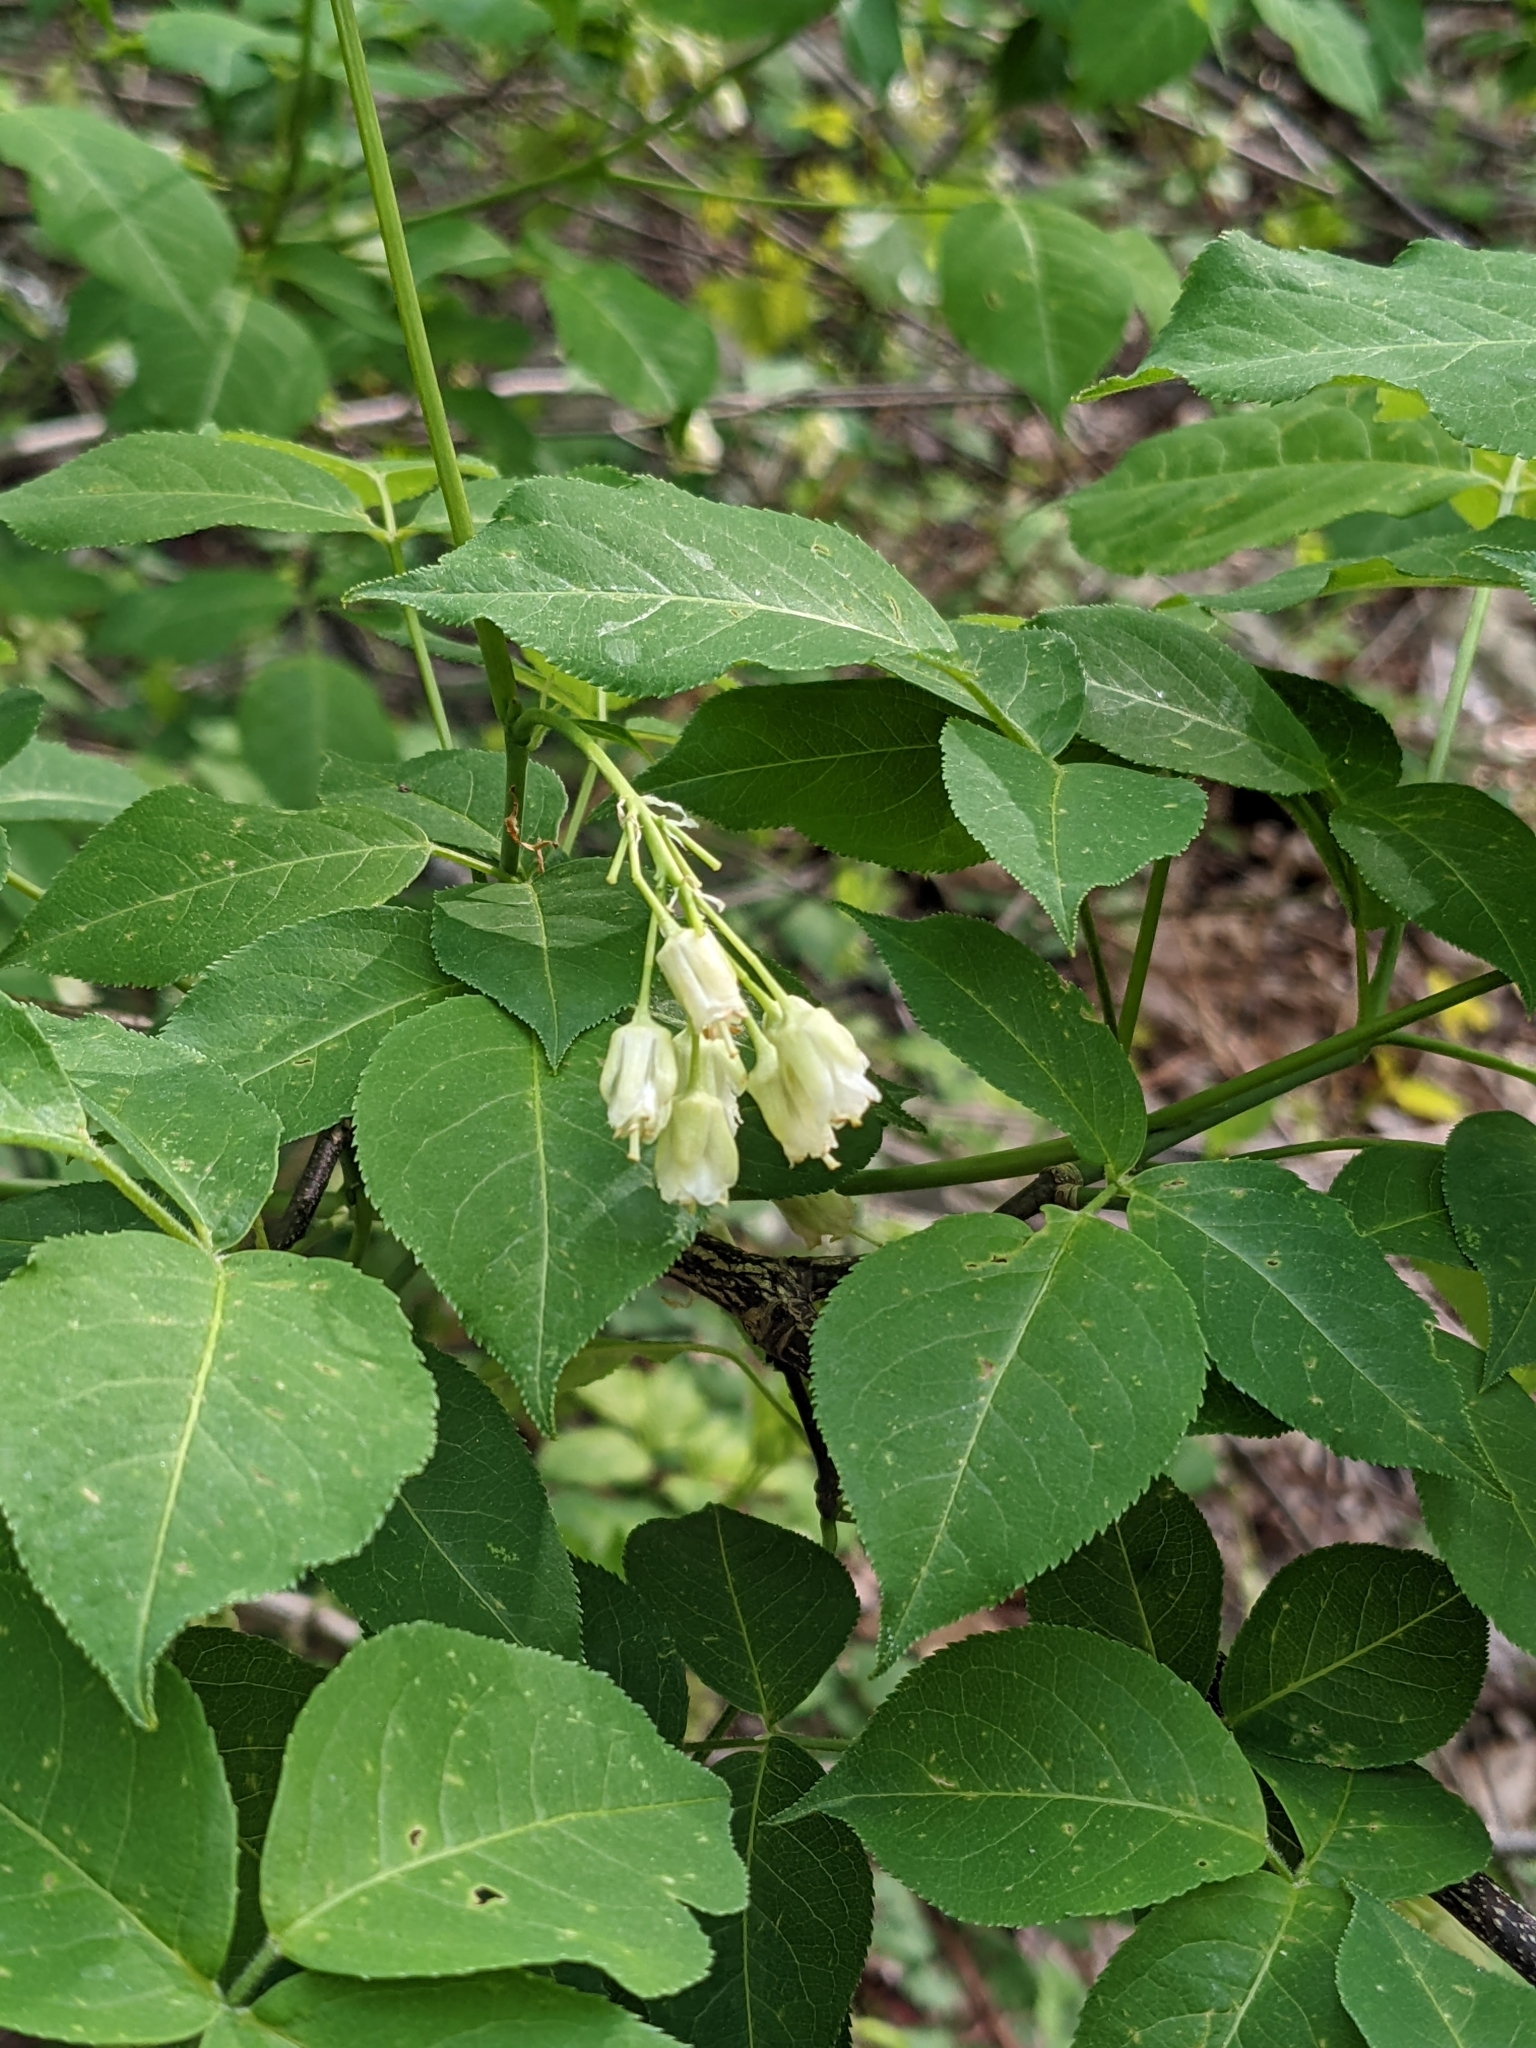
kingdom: Plantae
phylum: Tracheophyta
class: Magnoliopsida
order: Crossosomatales
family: Staphyleaceae
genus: Staphylea
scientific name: Staphylea trifolia
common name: American bladdernut
